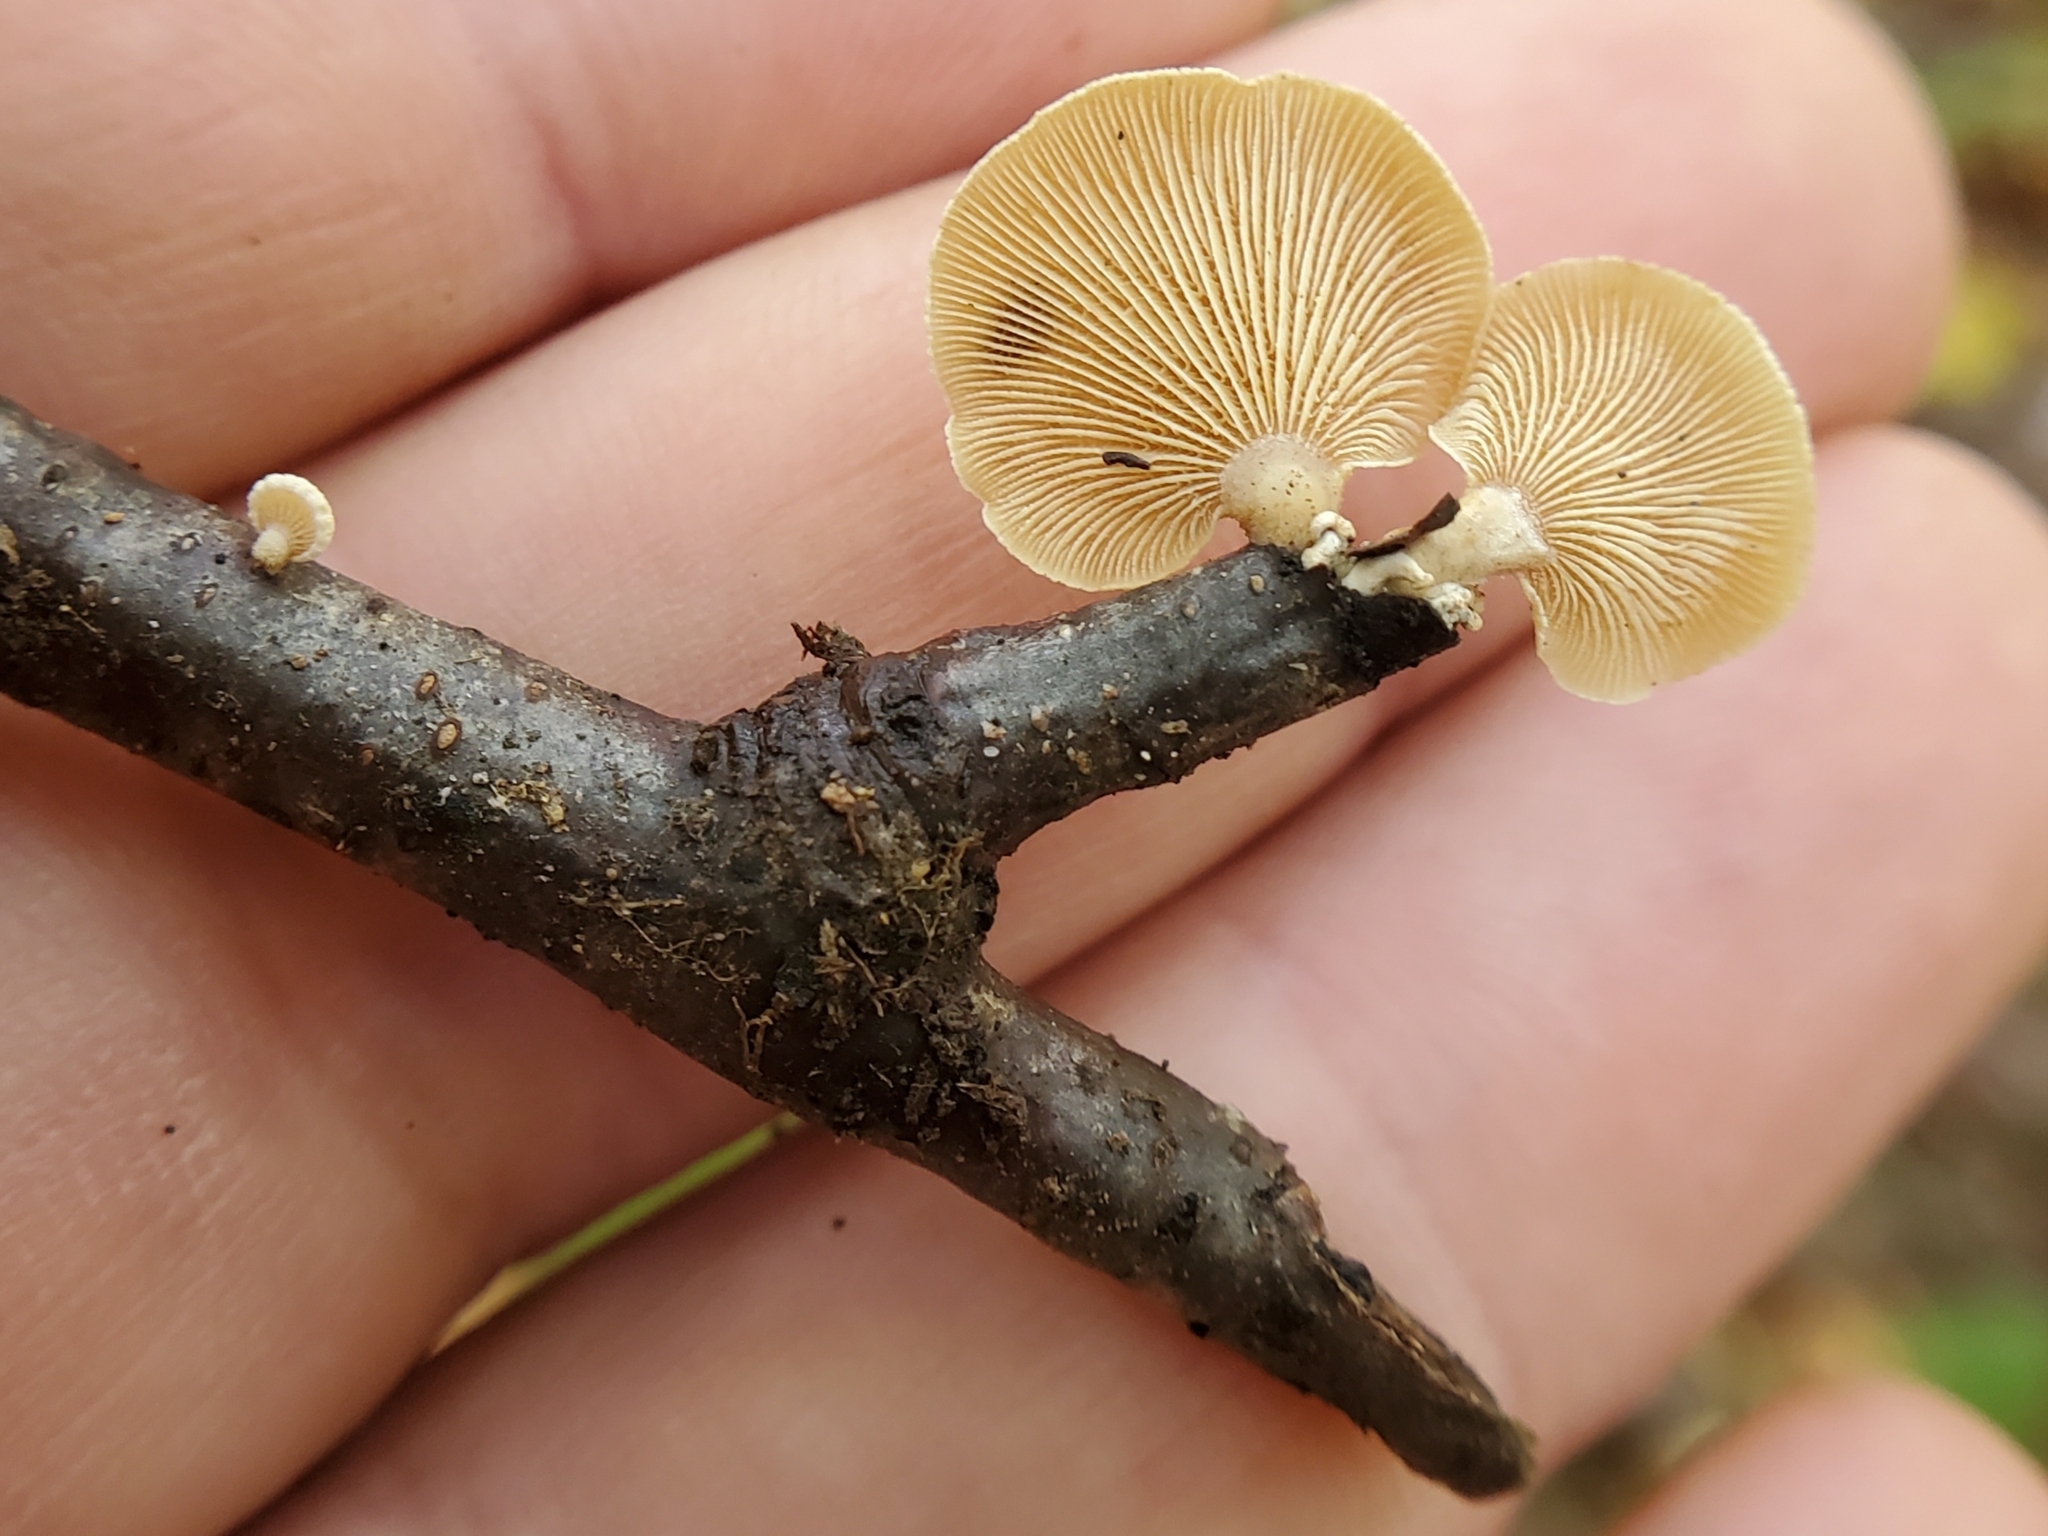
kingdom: Fungi
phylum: Basidiomycota
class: Agaricomycetes
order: Agaricales
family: Mycenaceae
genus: Panellus
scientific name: Panellus stipticus
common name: Bitter oysterling
